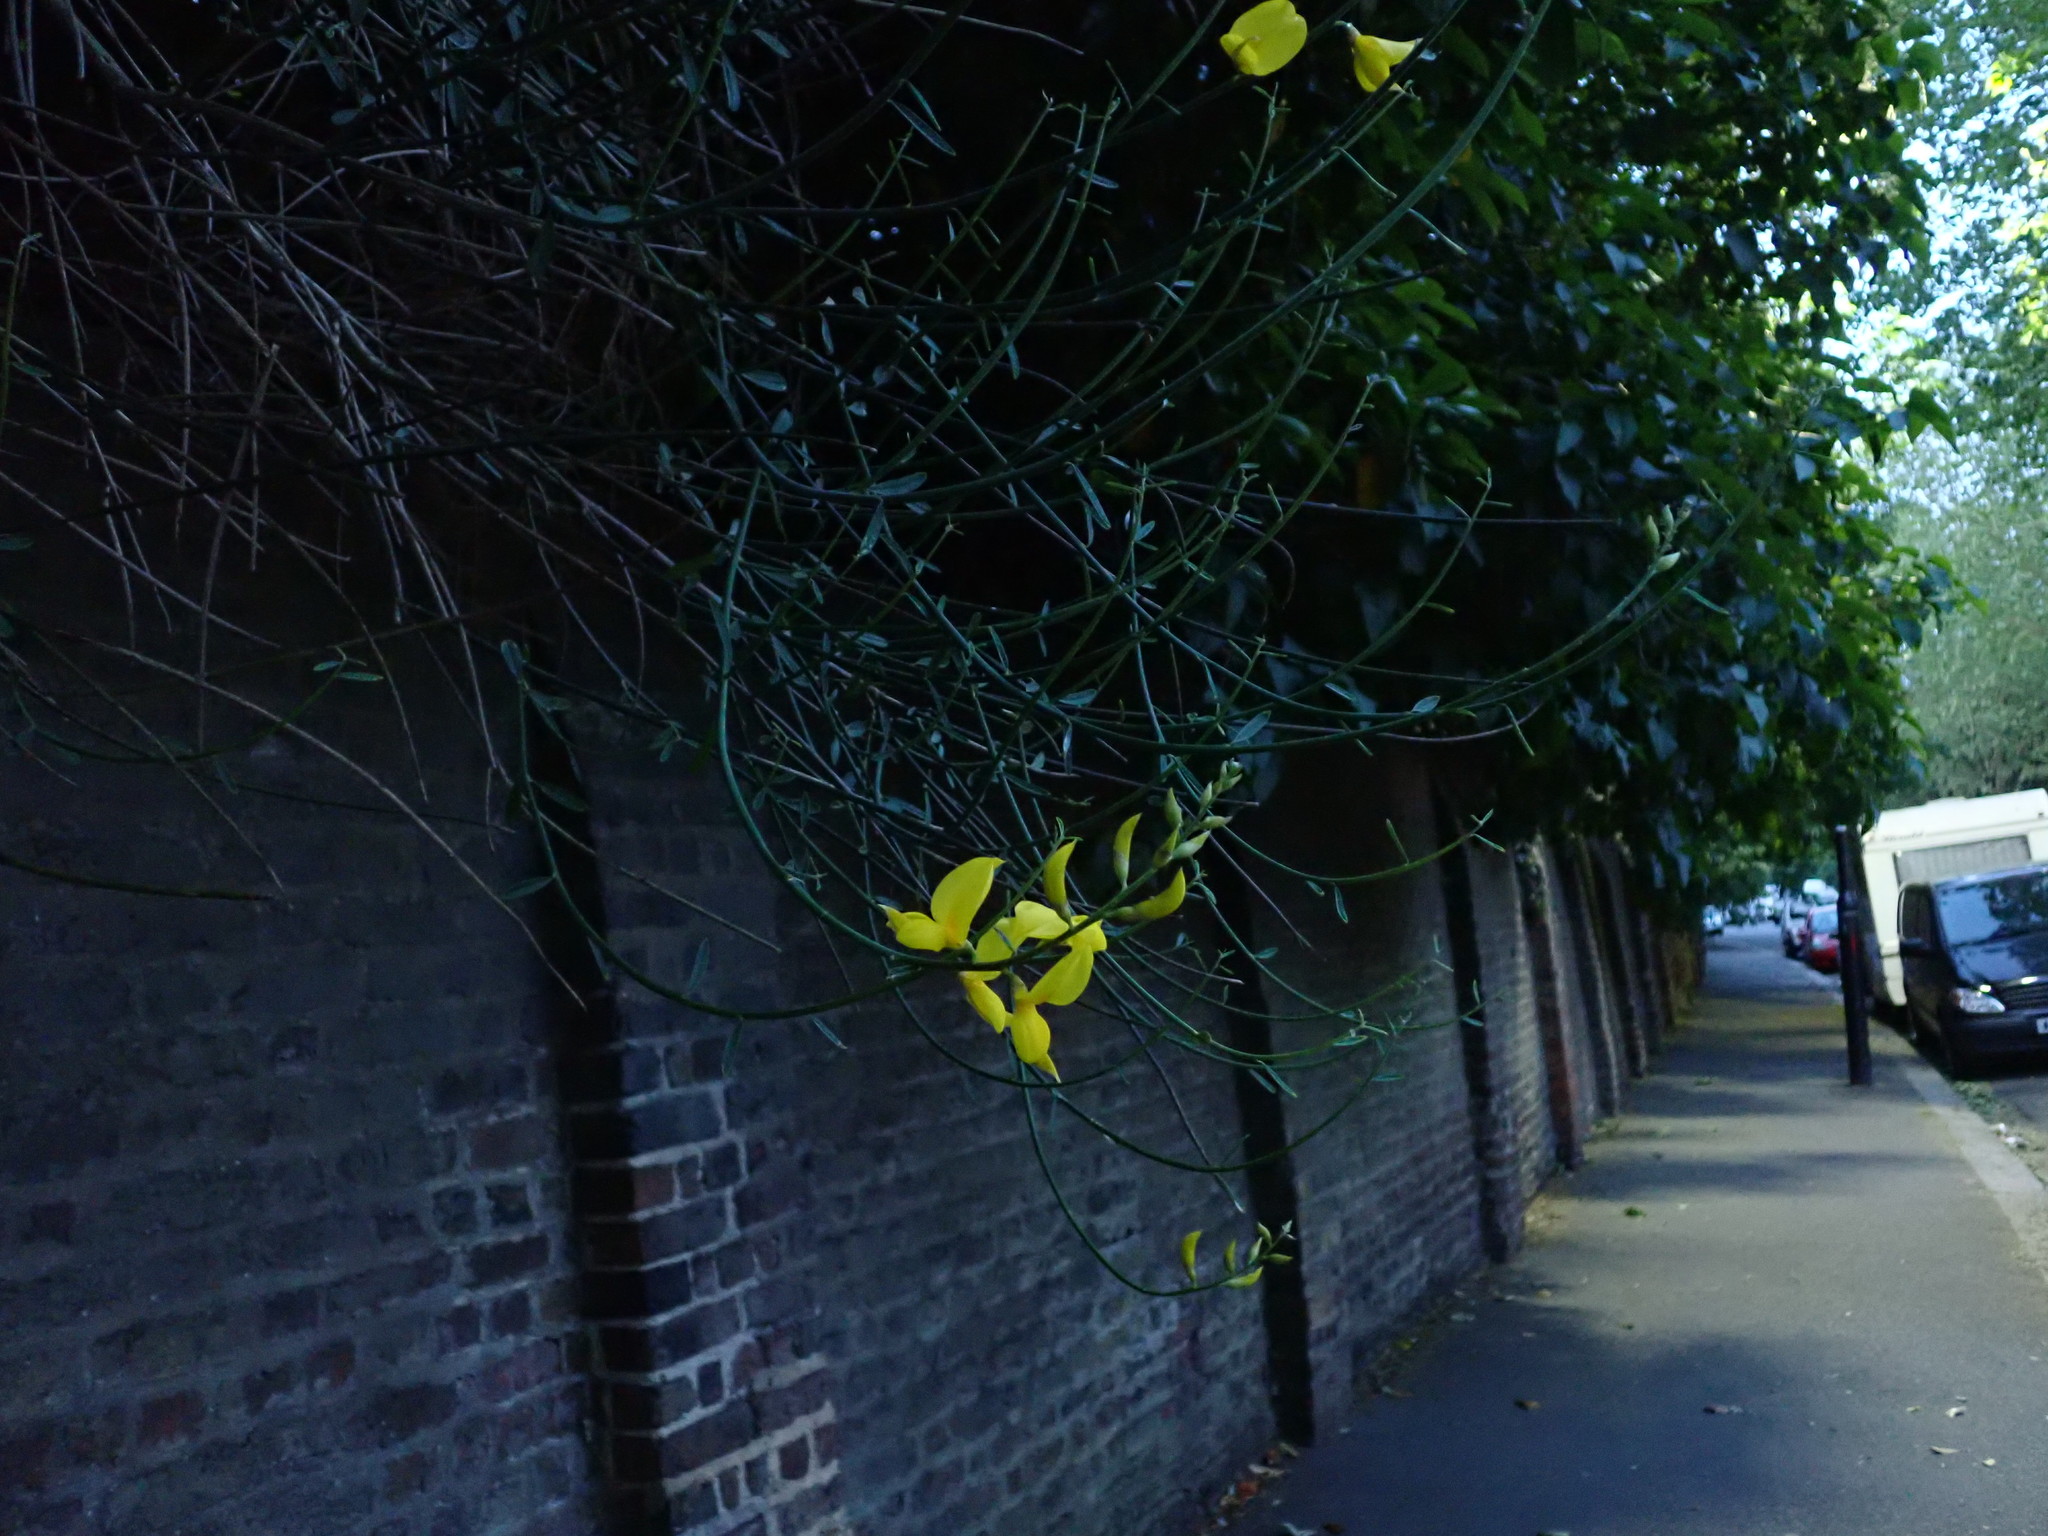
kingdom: Plantae
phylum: Tracheophyta
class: Magnoliopsida
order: Fabales
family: Fabaceae
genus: Spartium
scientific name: Spartium junceum
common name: Spanish broom
